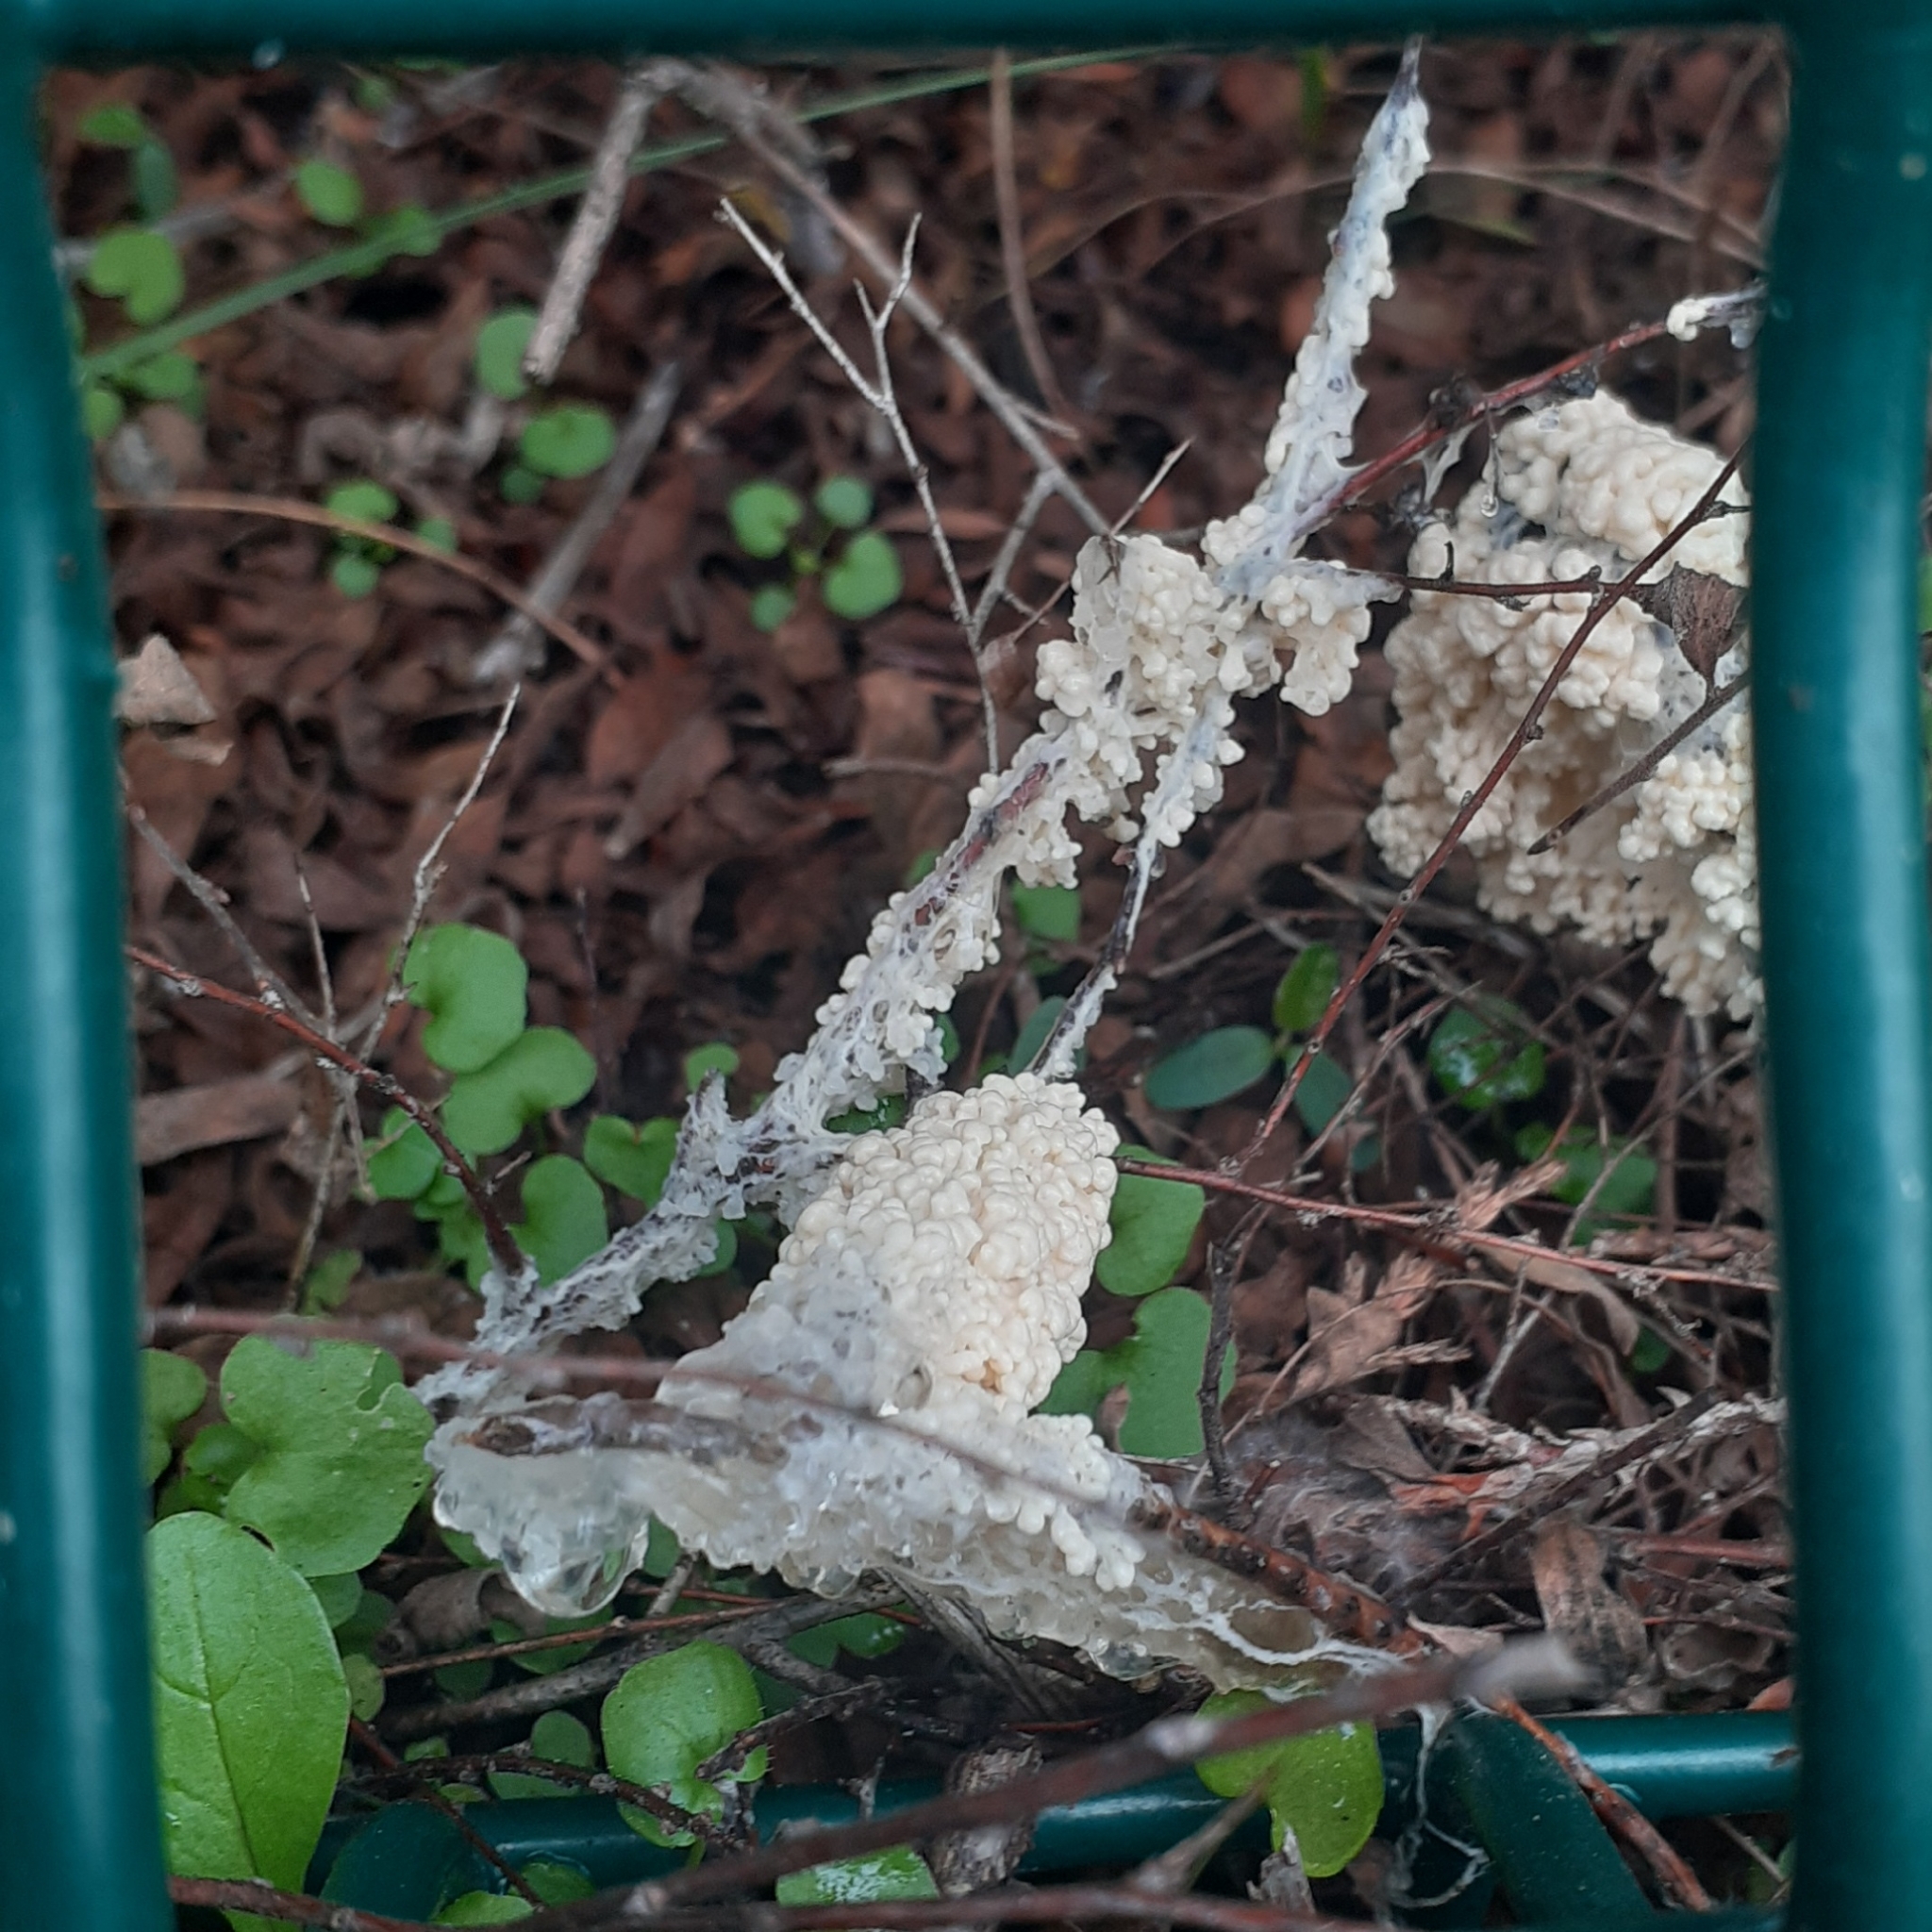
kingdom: Protozoa
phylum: Mycetozoa
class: Myxomycetes
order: Physarales
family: Physaraceae
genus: Didymium
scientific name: Didymium
